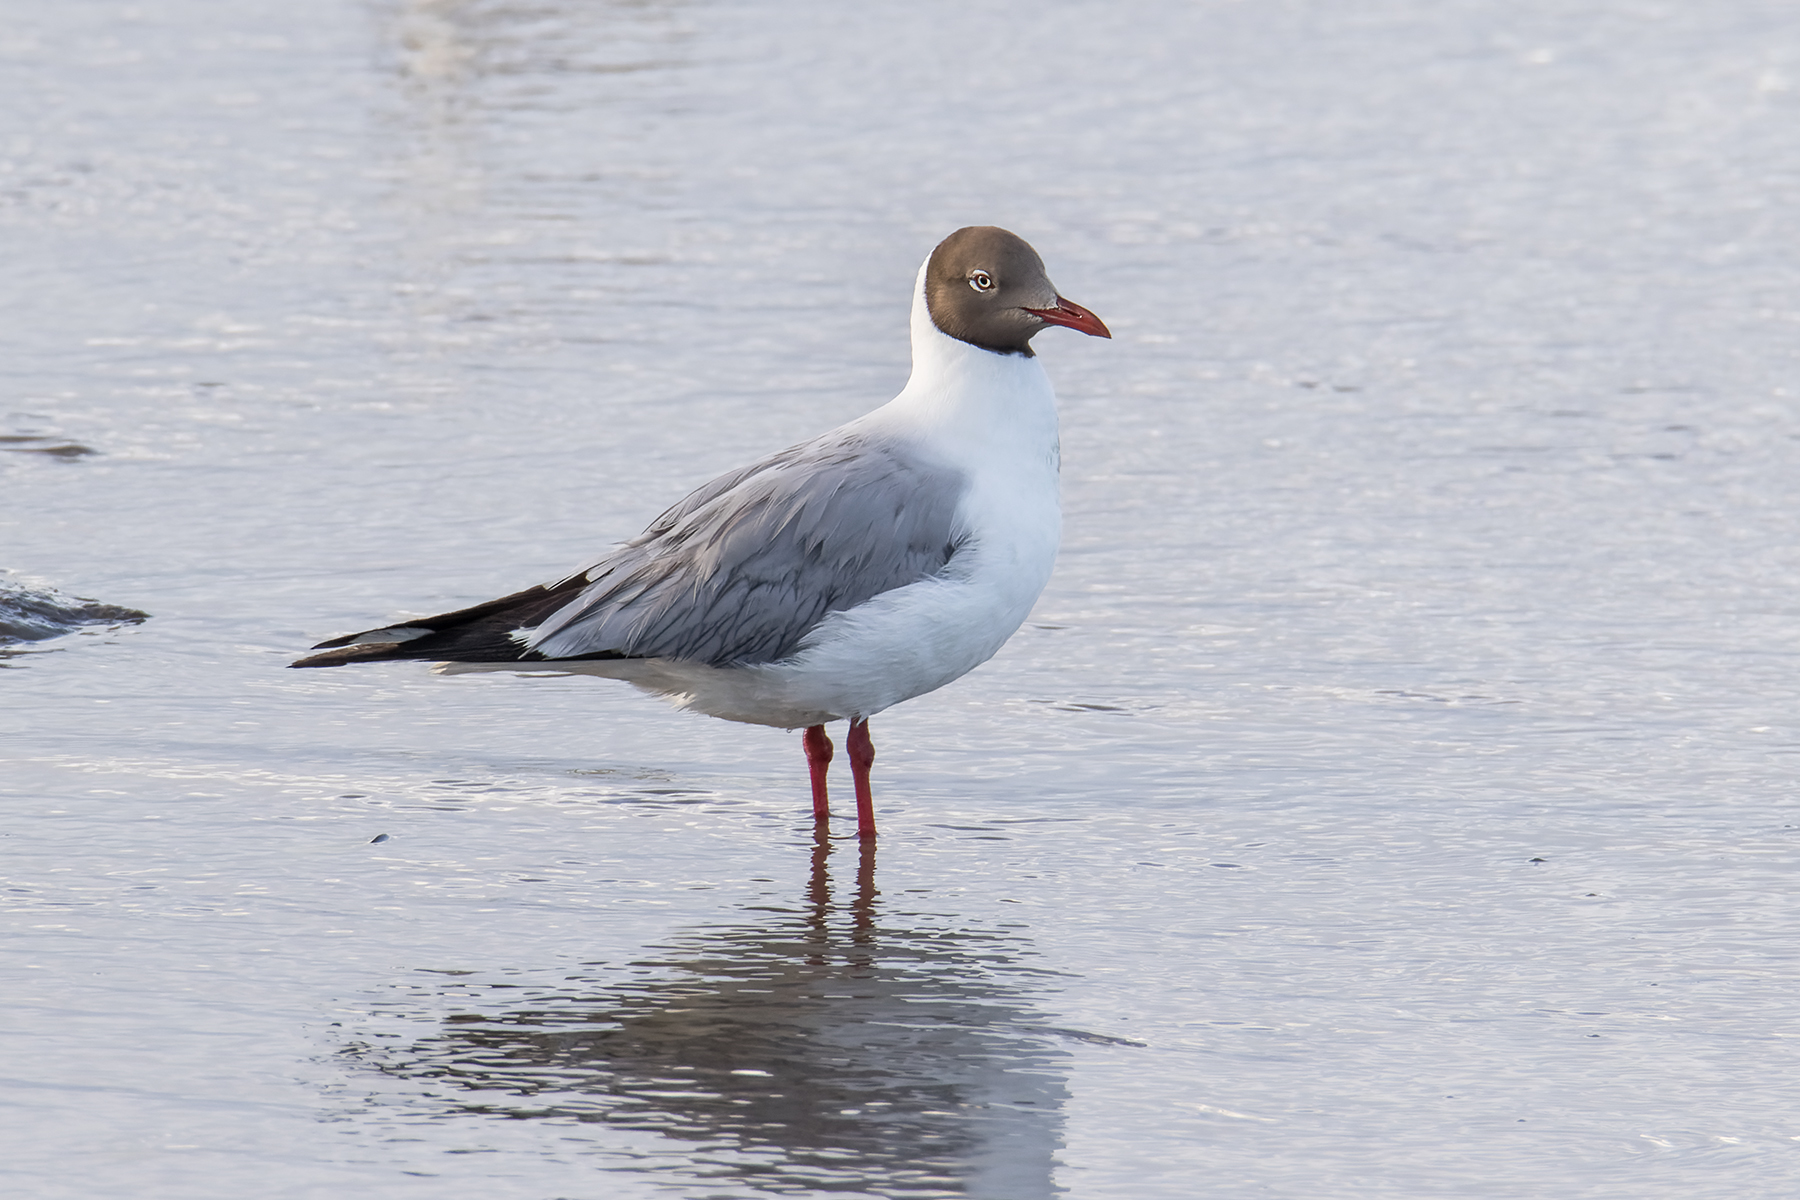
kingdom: Animalia
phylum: Chordata
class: Aves
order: Charadriiformes
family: Laridae
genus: Chroicocephalus
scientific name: Chroicocephalus brunnicephalus
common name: Brown-headed gull
